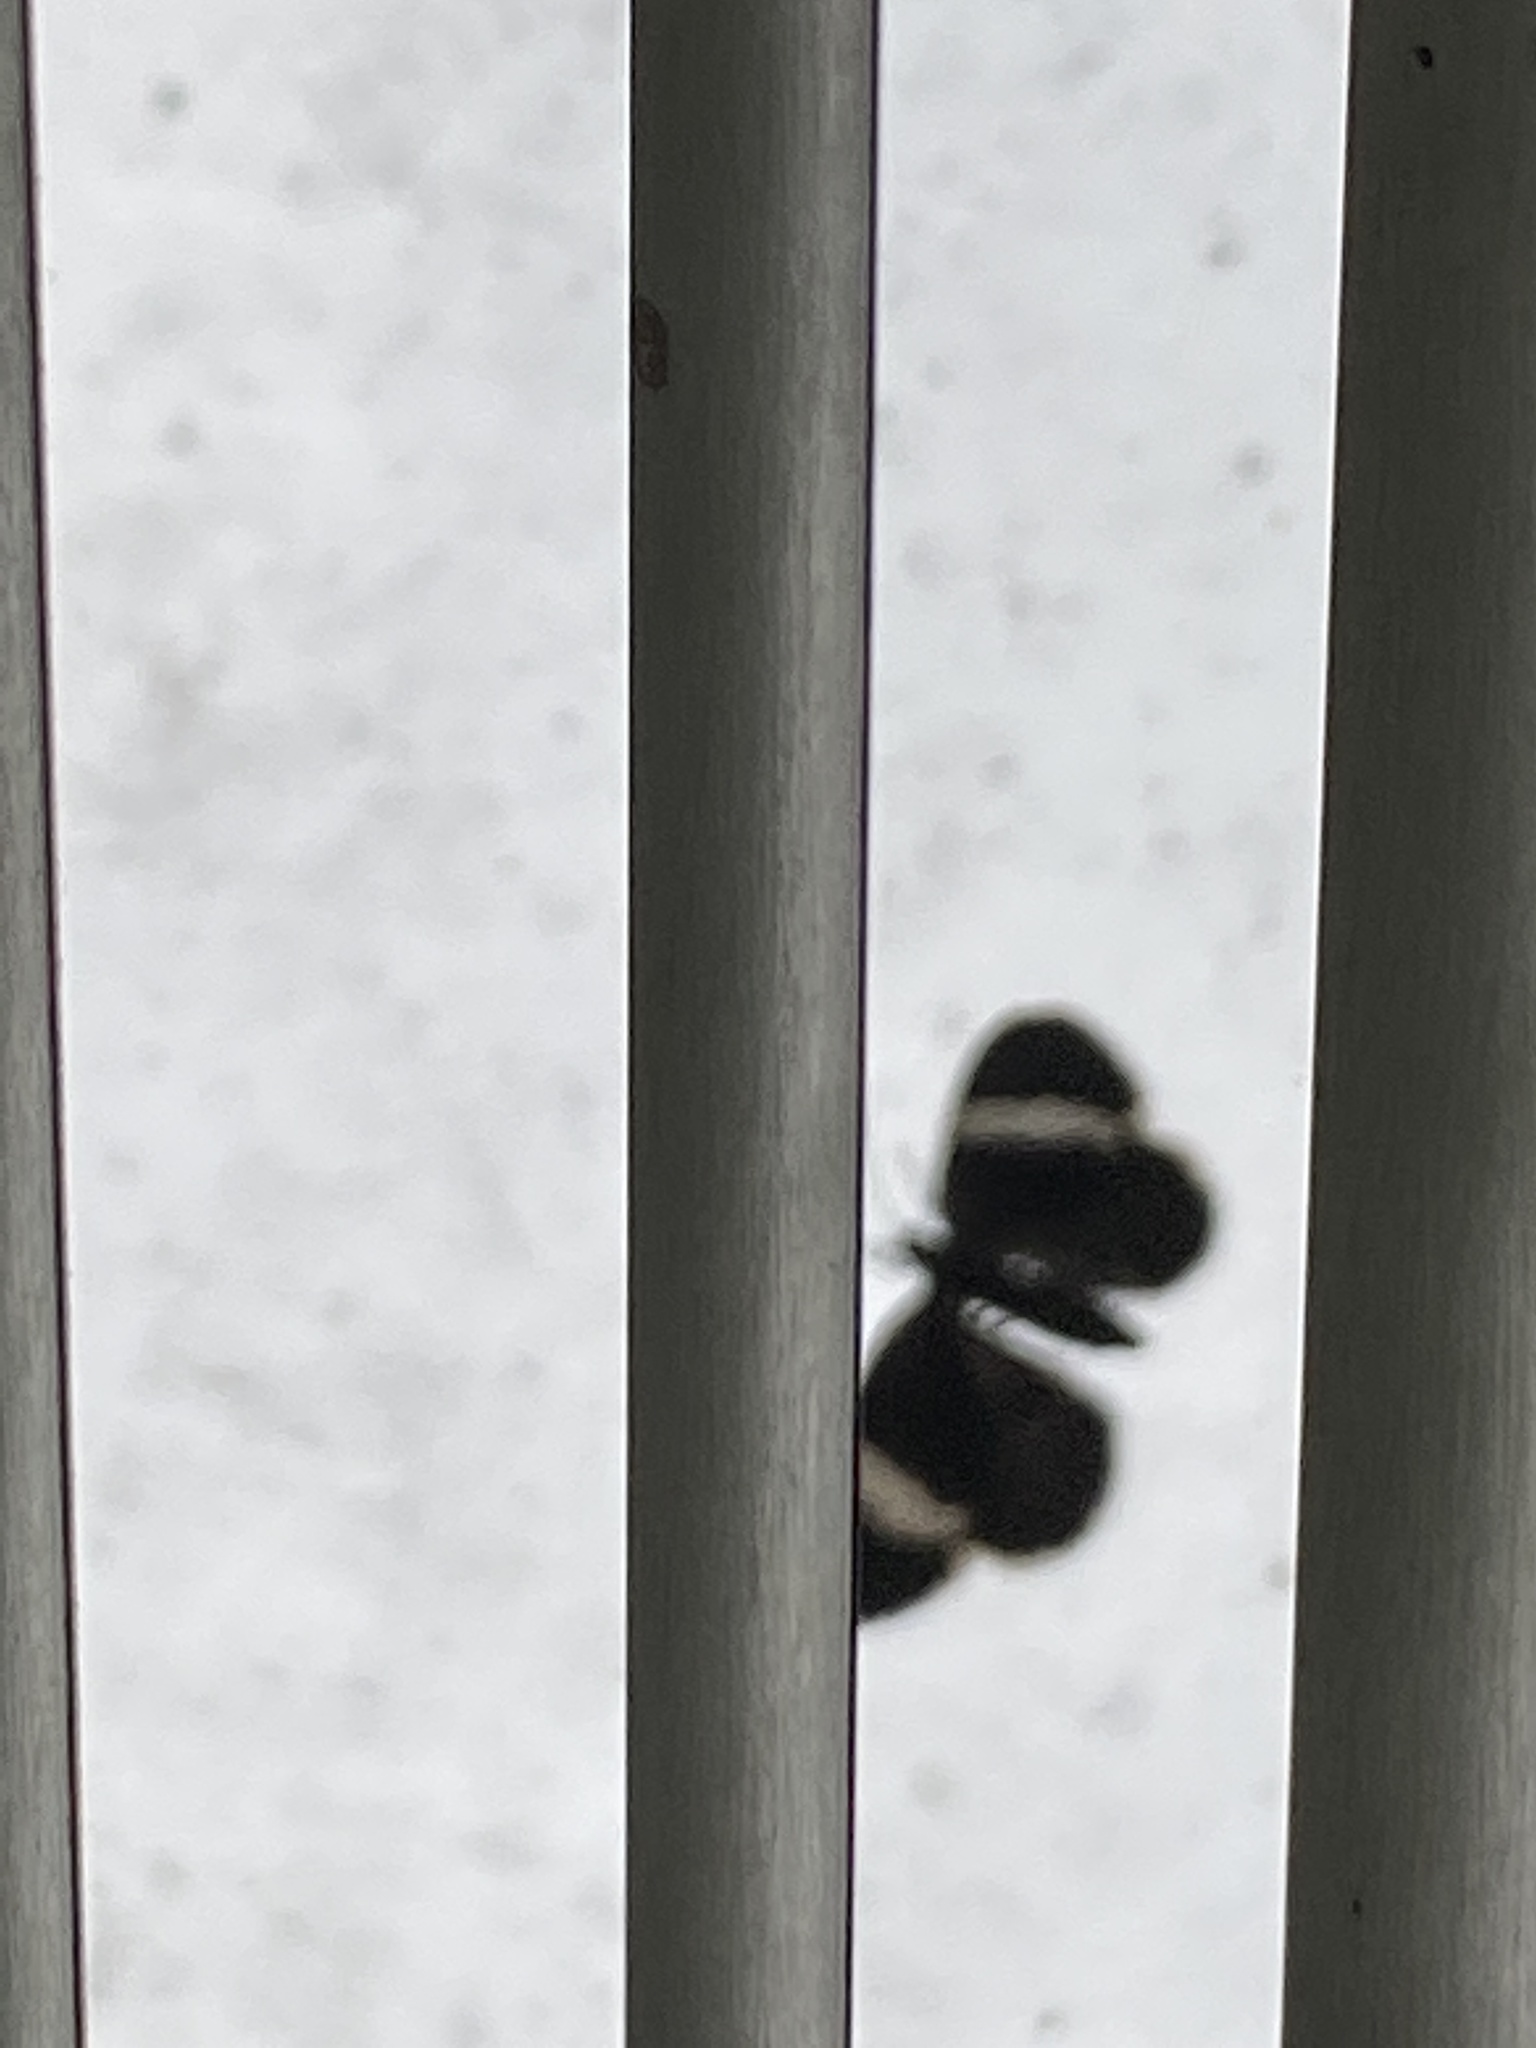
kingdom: Animalia
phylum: Arthropoda
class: Insecta
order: Lepidoptera
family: Geometridae
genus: Trichodezia
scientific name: Trichodezia albovittata
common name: White striped black
